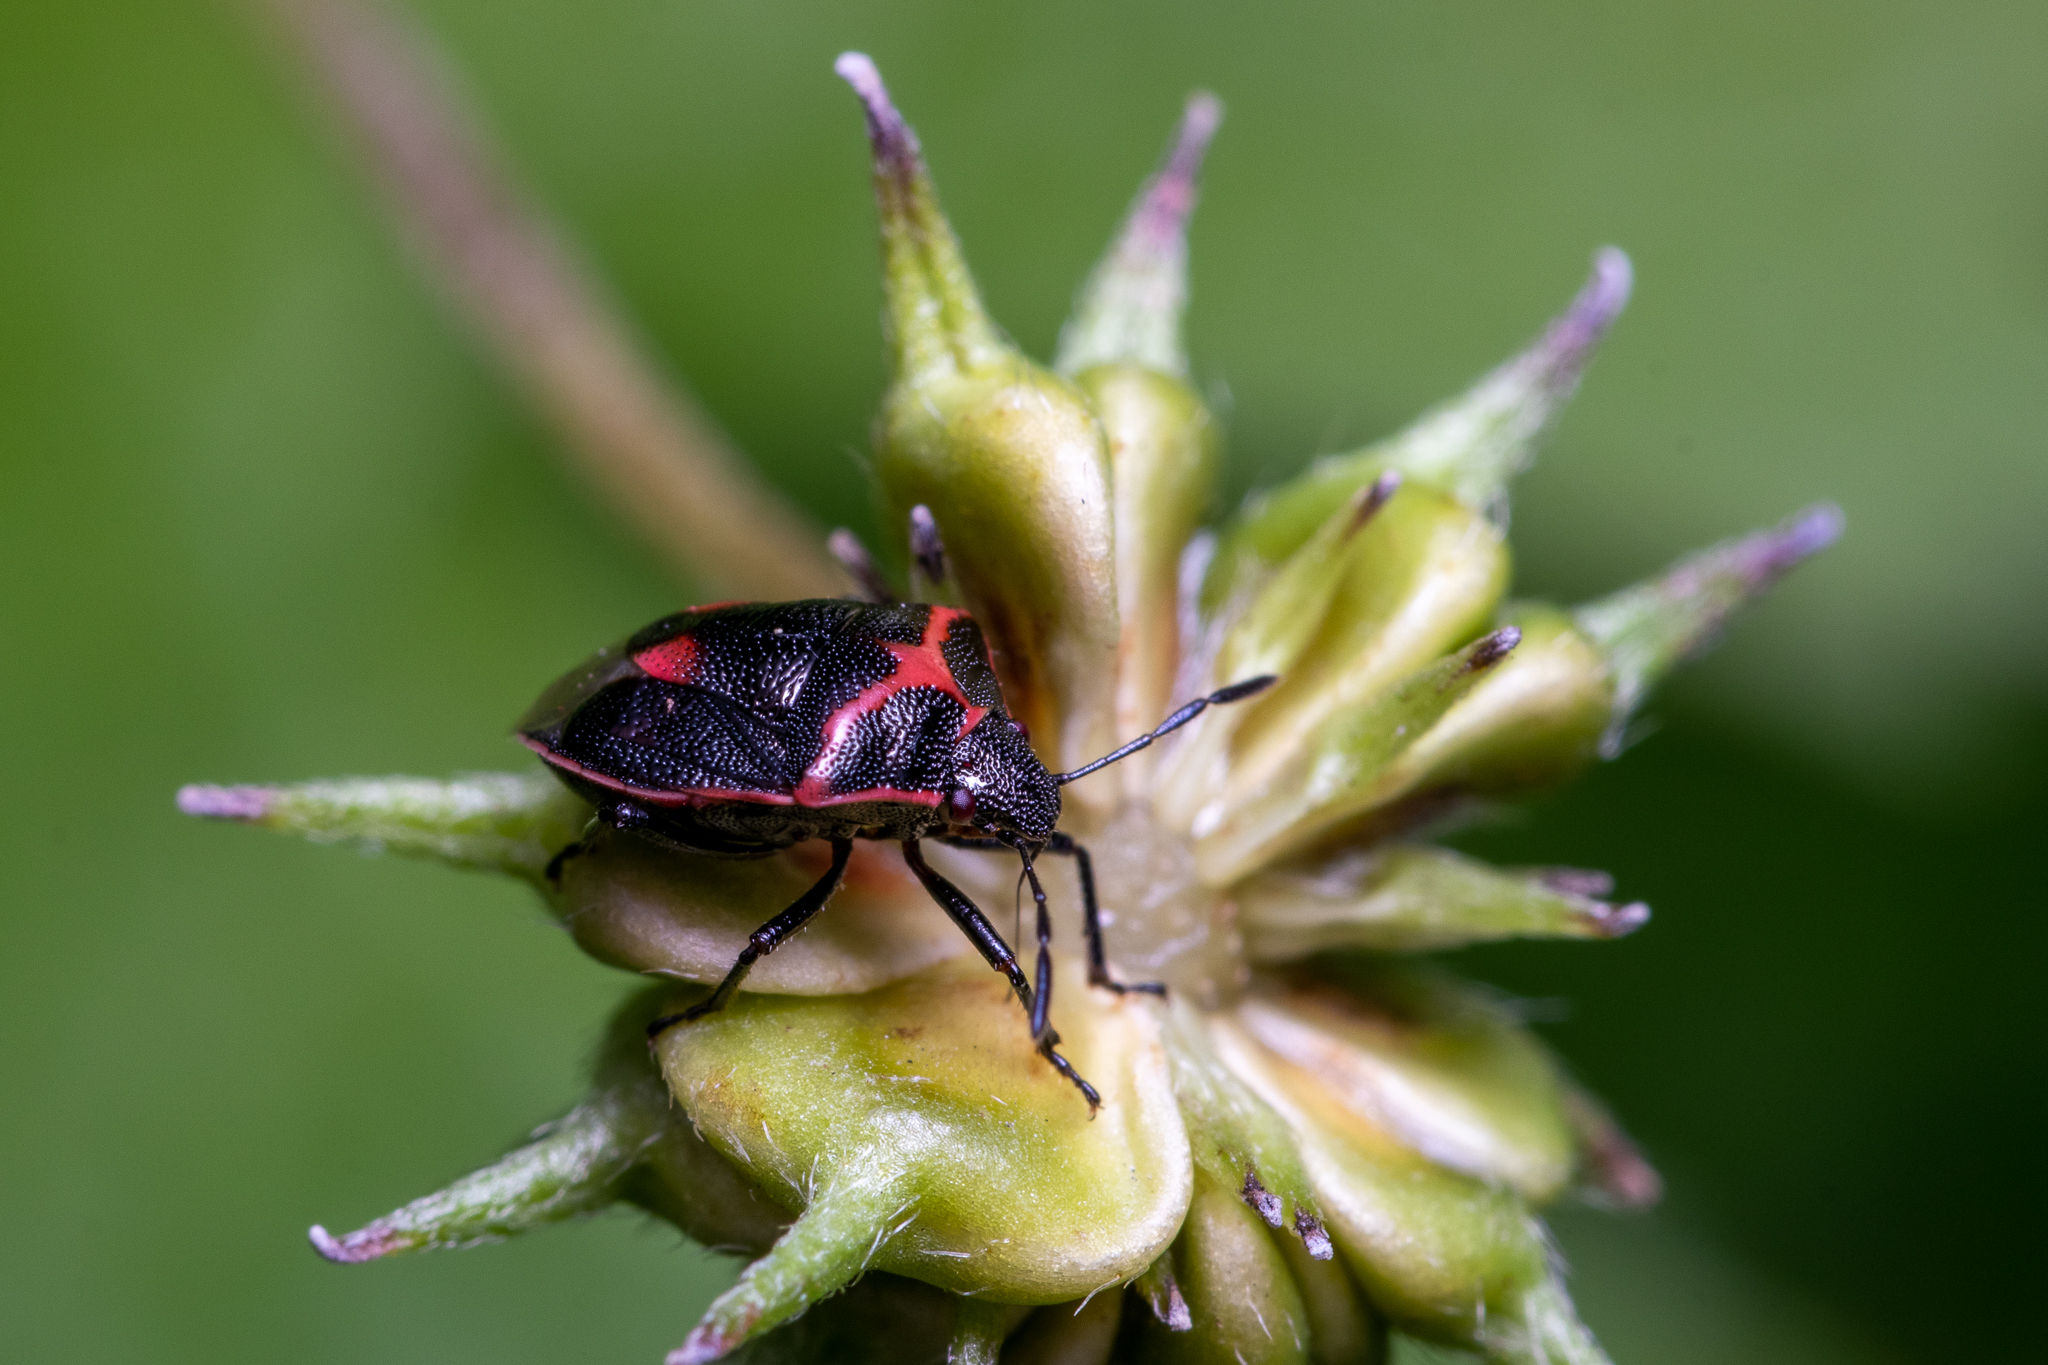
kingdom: Animalia
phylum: Arthropoda
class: Insecta
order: Hemiptera
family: Pentatomidae
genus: Cosmopepla
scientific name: Cosmopepla lintneriana
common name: Twice-stabbed stink bug
